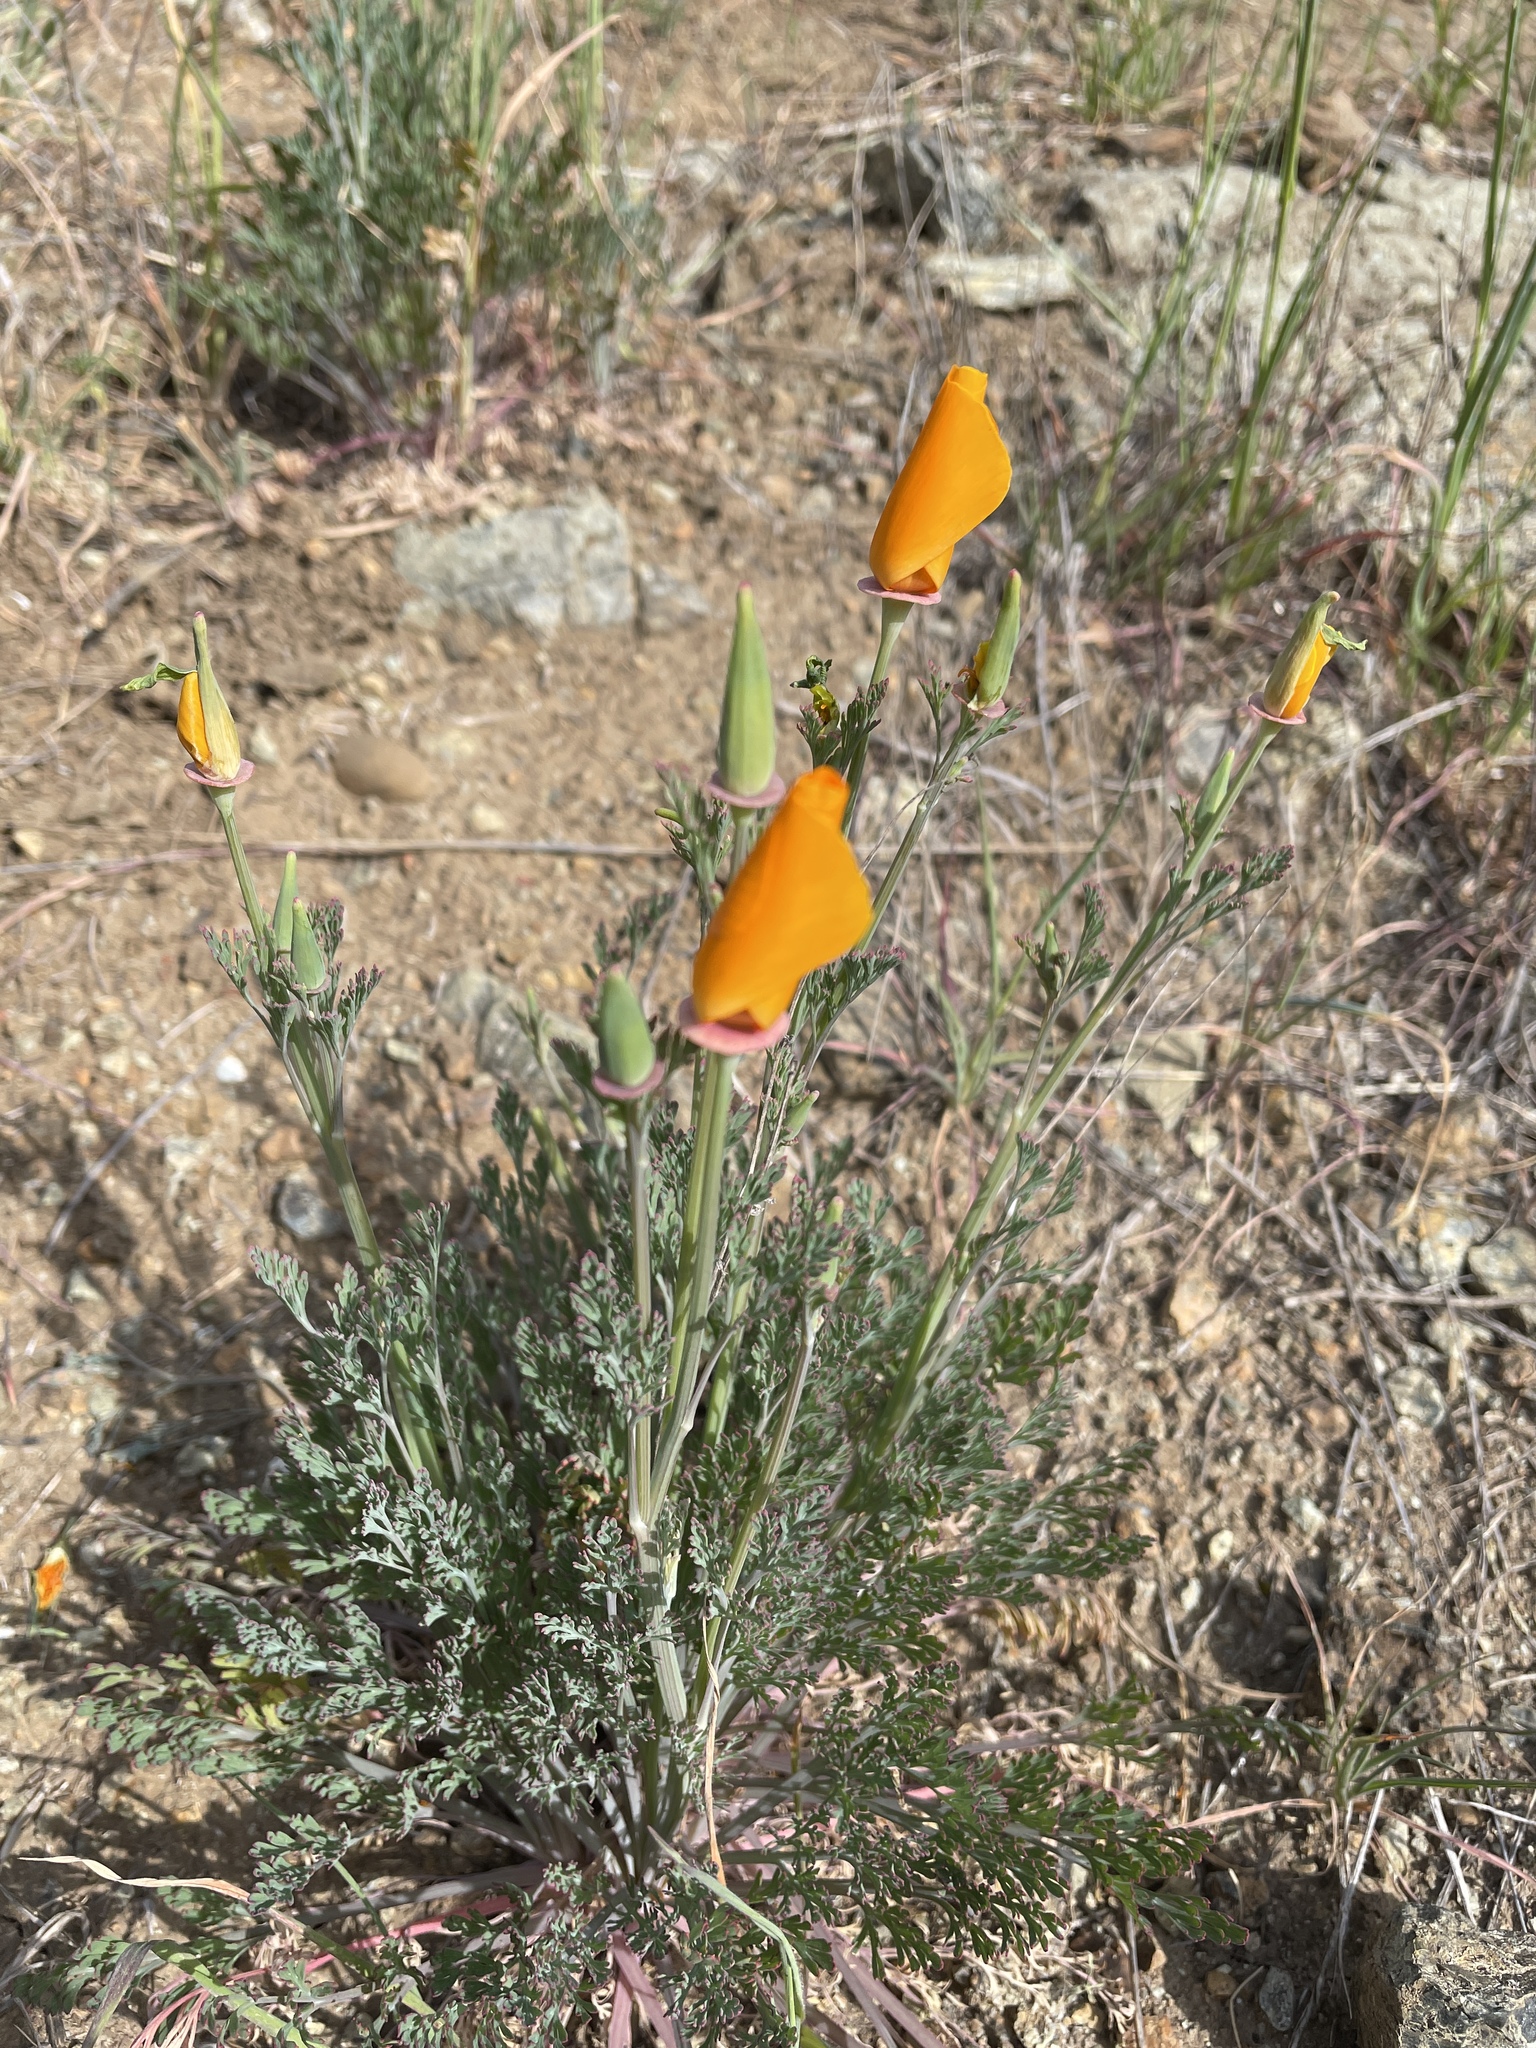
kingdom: Plantae
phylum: Tracheophyta
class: Magnoliopsida
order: Ranunculales
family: Papaveraceae
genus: Eschscholzia
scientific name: Eschscholzia californica
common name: California poppy
